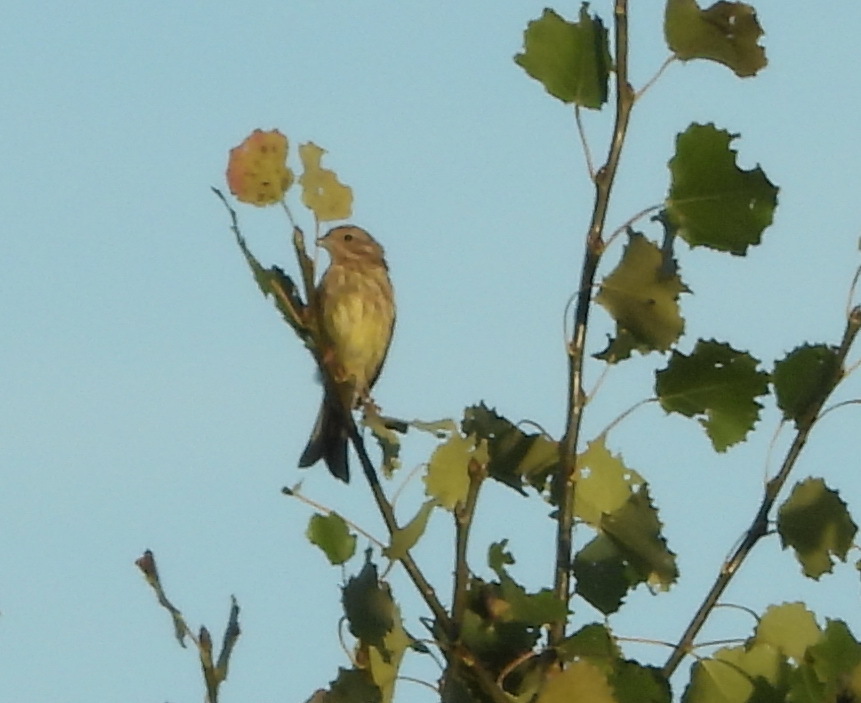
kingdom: Animalia
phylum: Chordata
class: Aves
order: Passeriformes
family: Emberizidae
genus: Emberiza
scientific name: Emberiza citrinella
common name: Yellowhammer
